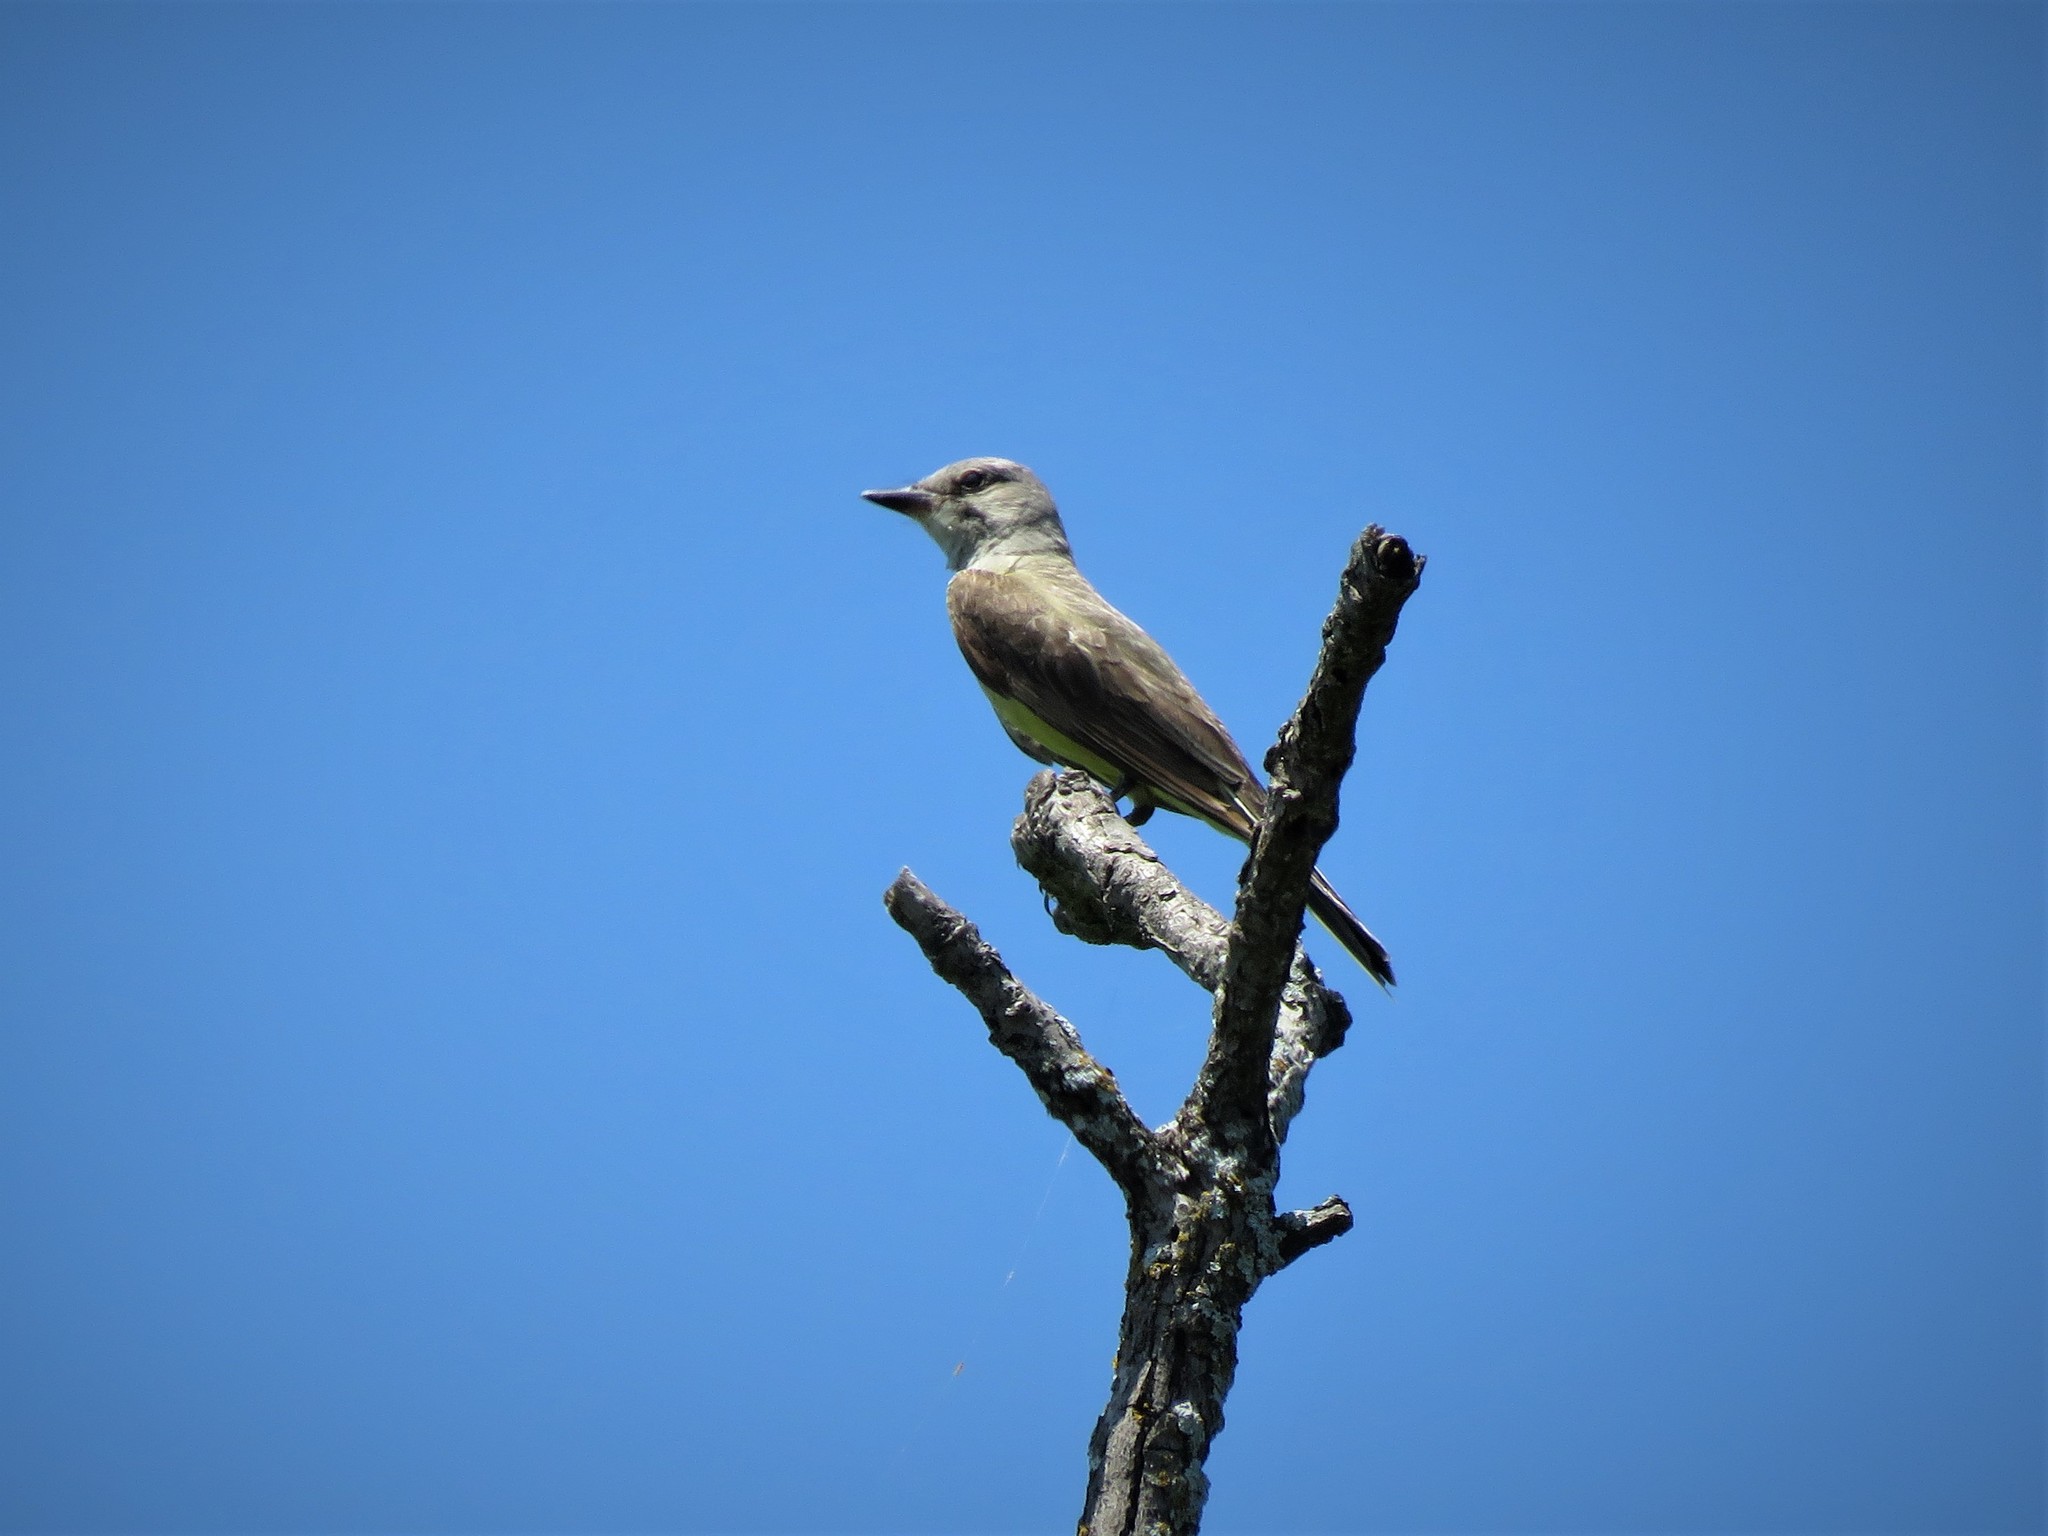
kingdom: Animalia
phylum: Chordata
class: Aves
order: Passeriformes
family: Tyrannidae
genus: Tyrannus
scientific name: Tyrannus verticalis
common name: Western kingbird
